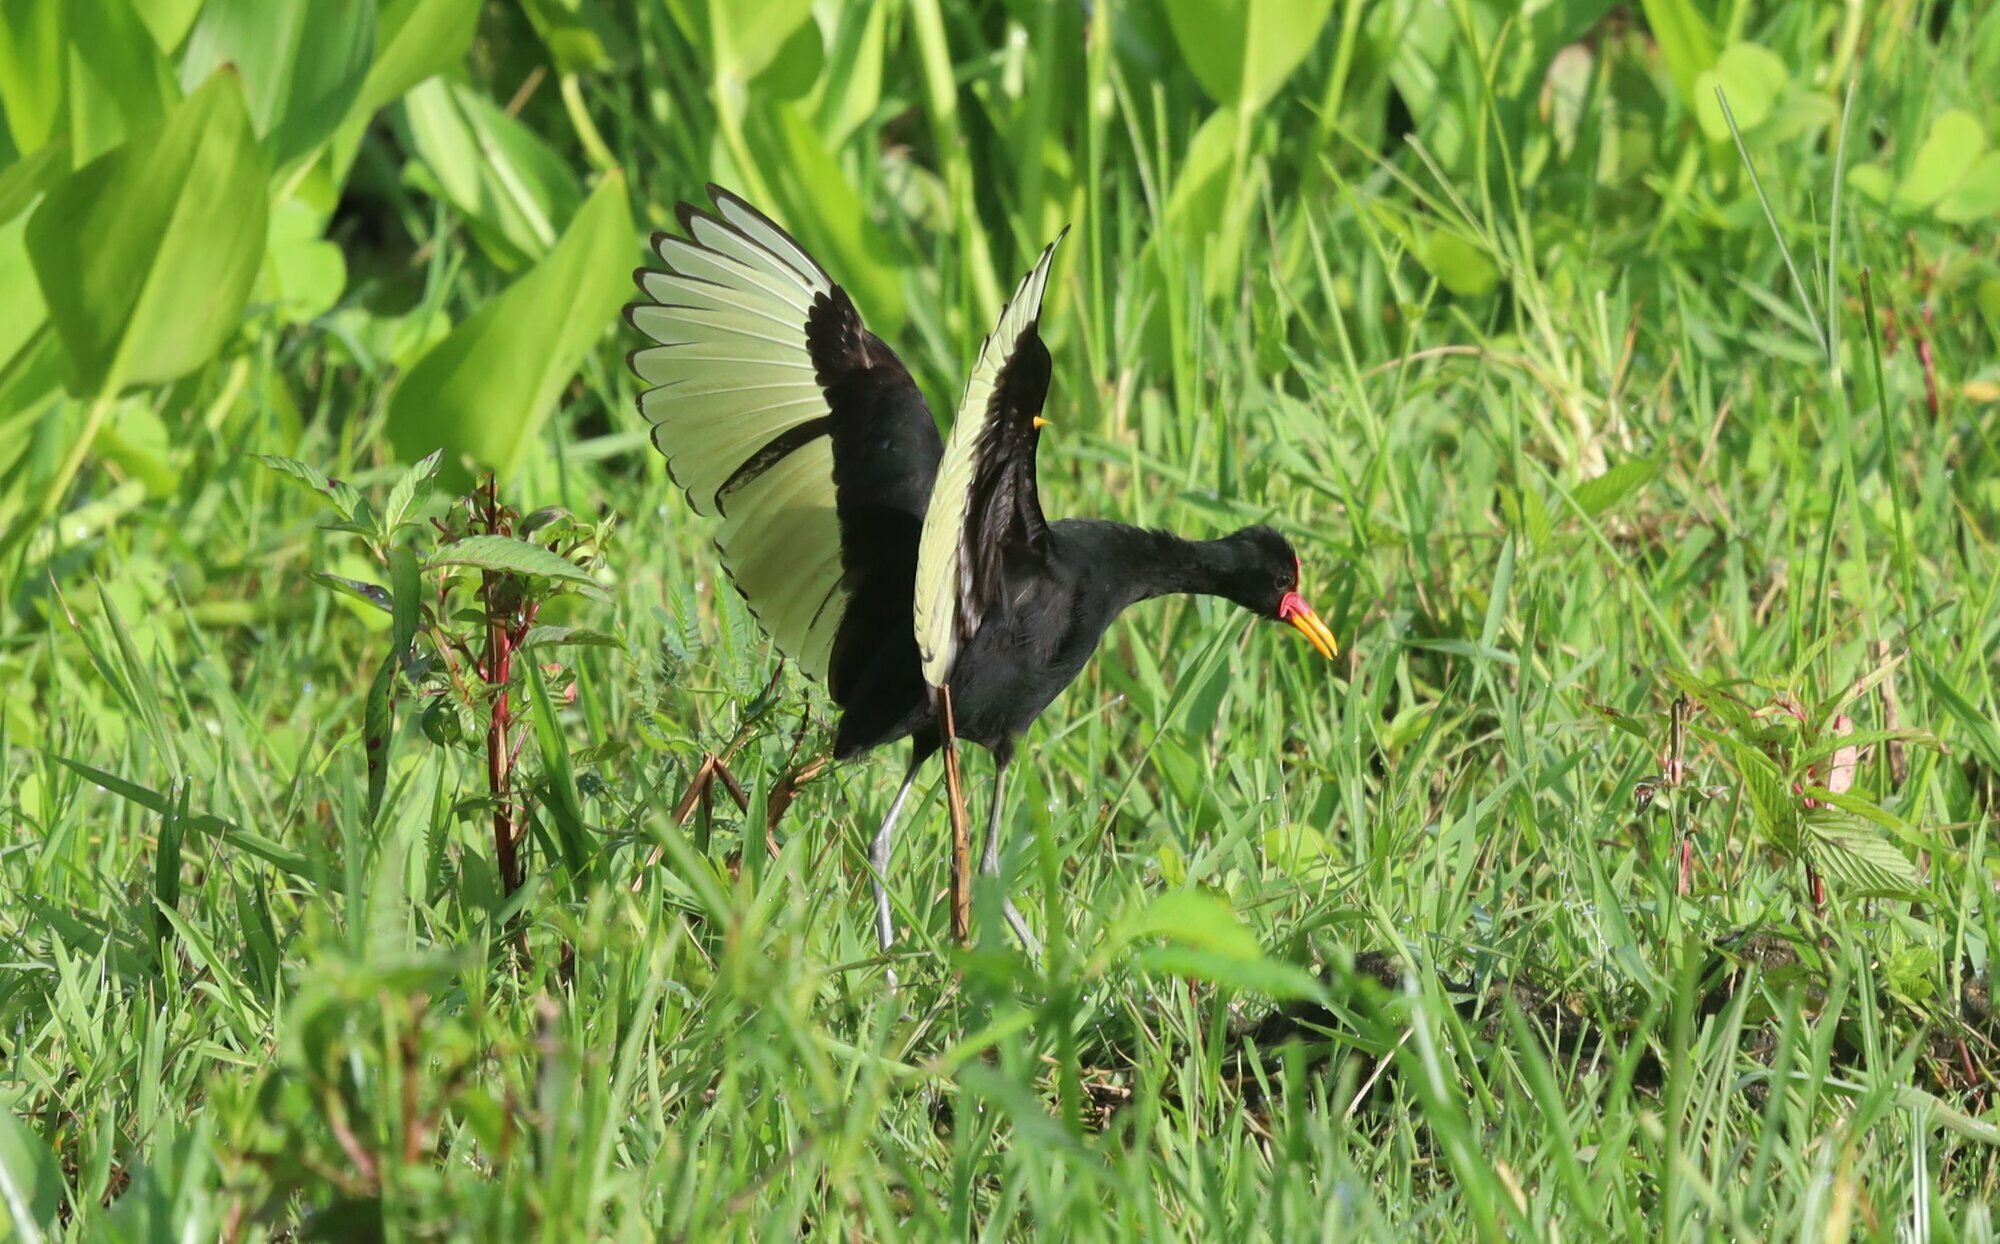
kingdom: Animalia
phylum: Chordata
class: Aves
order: Charadriiformes
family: Jacanidae
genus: Jacana
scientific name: Jacana jacana
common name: Wattled jacana
